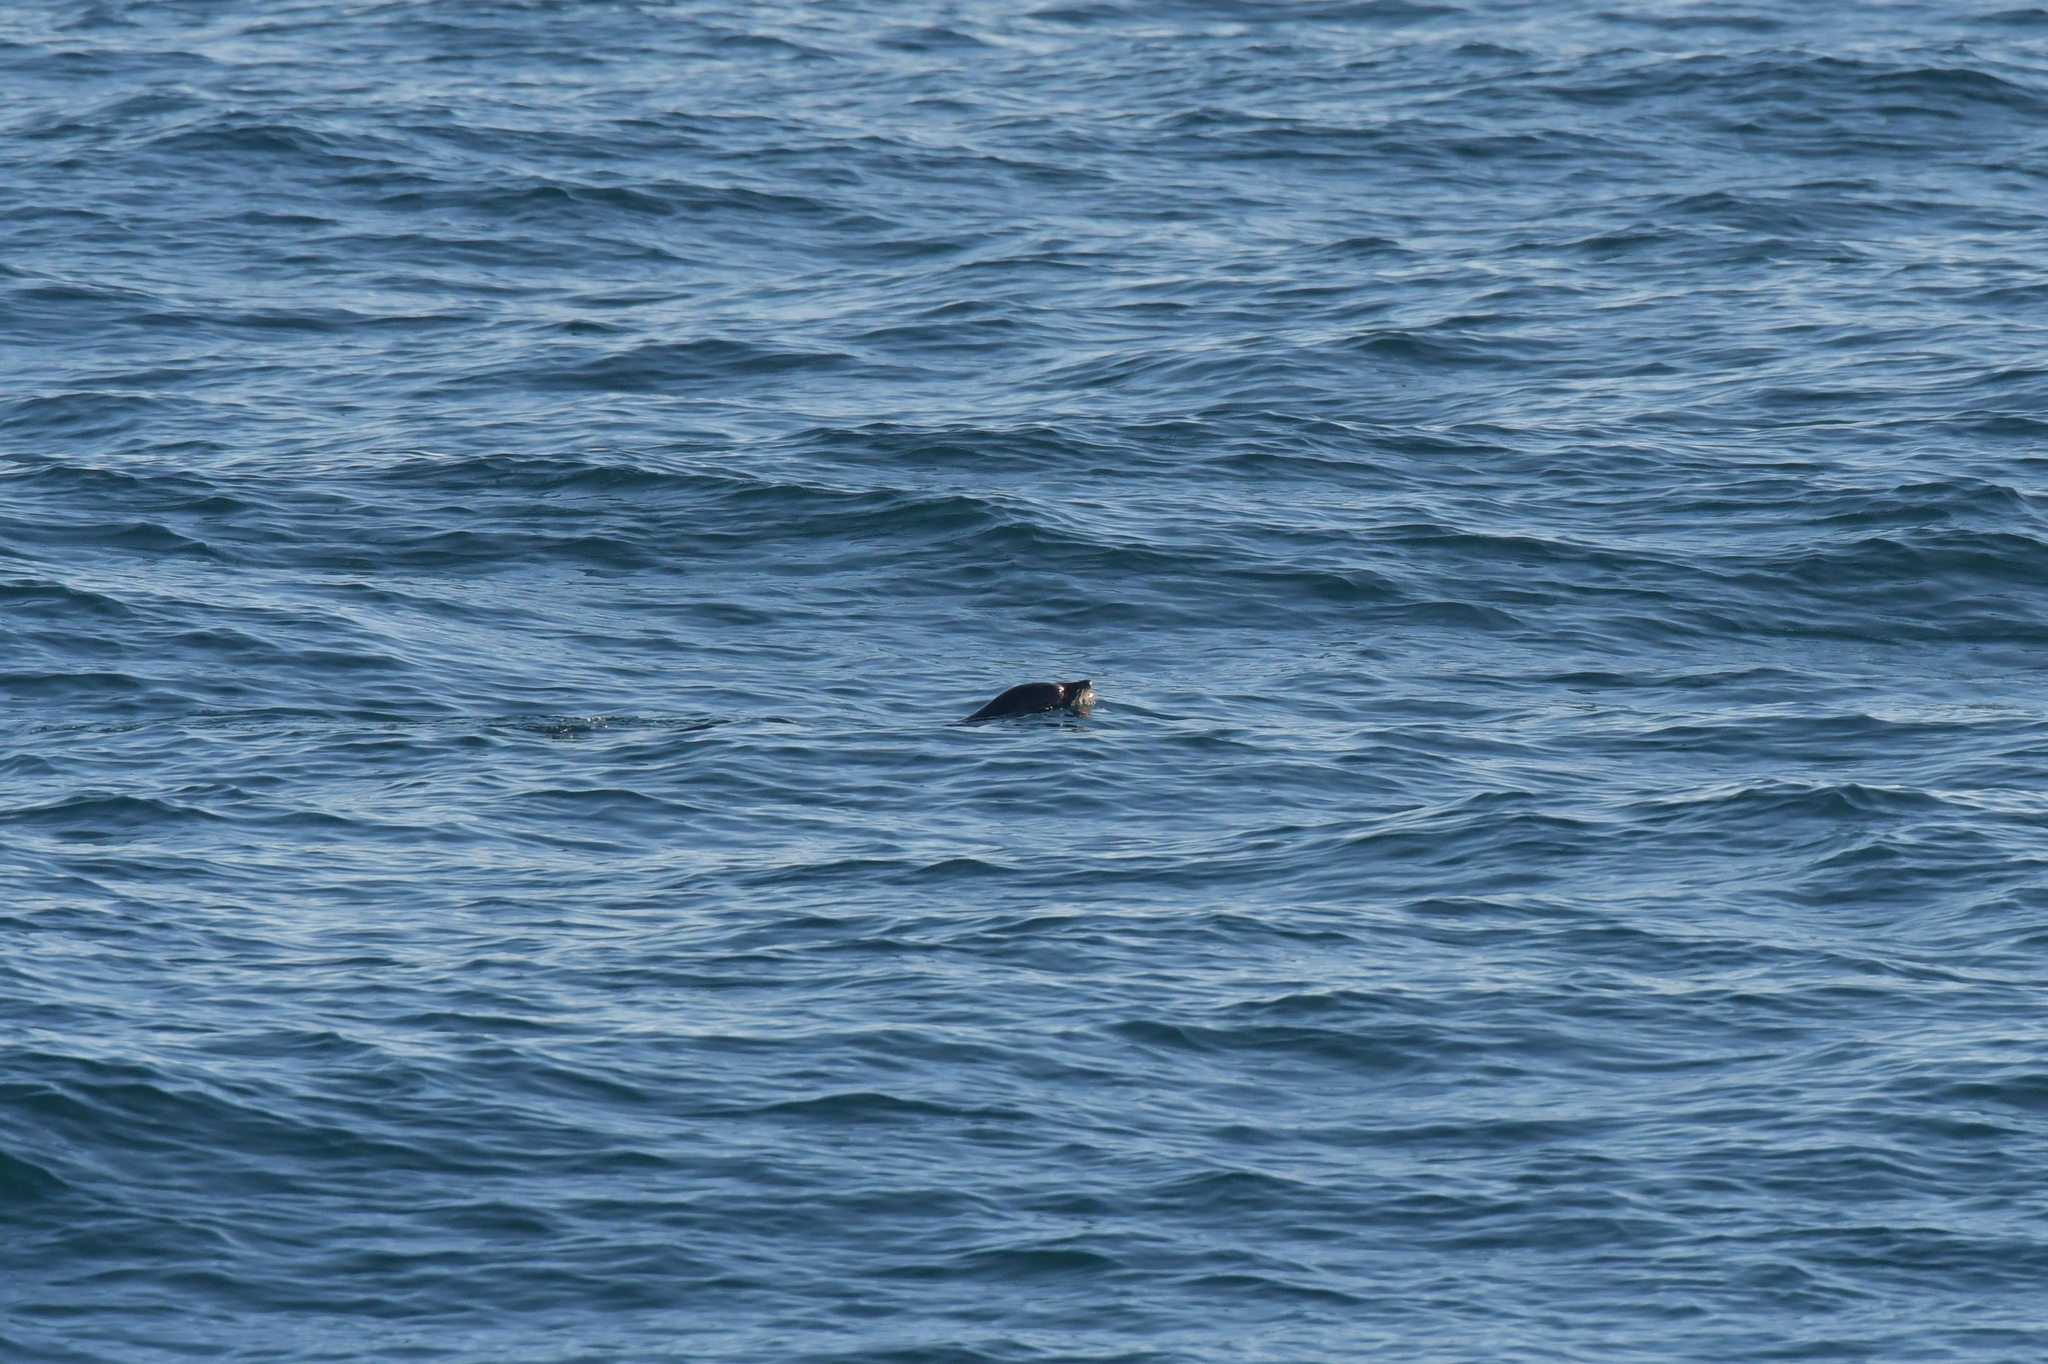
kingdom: Animalia
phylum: Chordata
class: Mammalia
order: Carnivora
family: Otariidae
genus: Arctocephalus
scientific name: Arctocephalus forsteri
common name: New zealand fur seal
